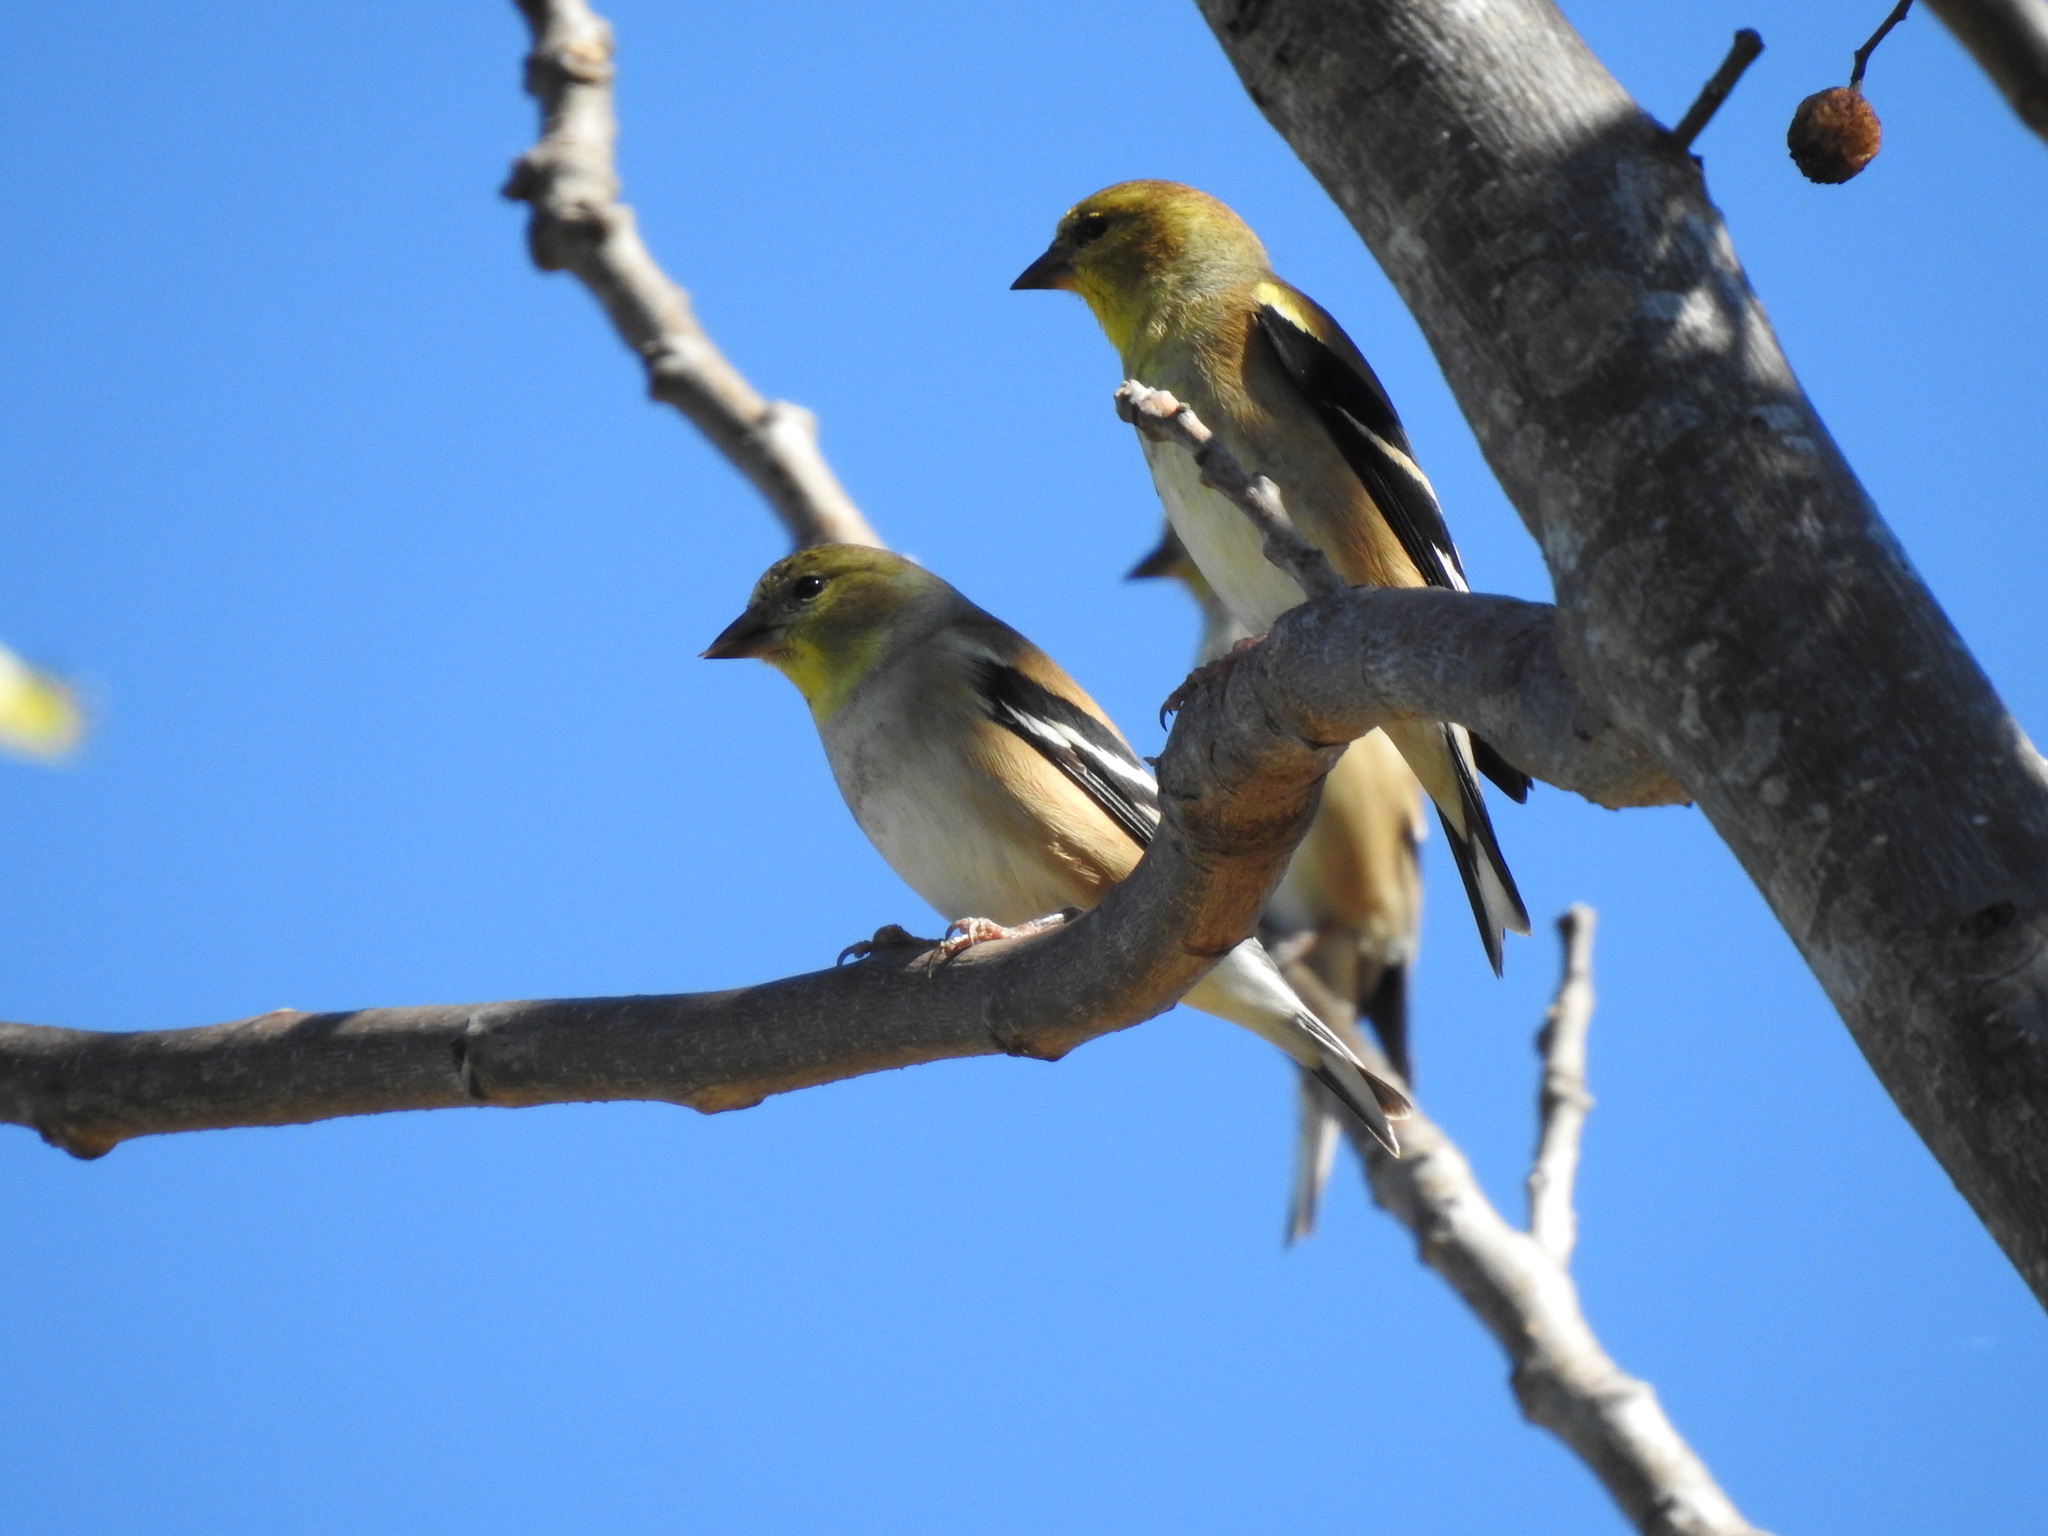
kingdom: Animalia
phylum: Chordata
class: Aves
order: Passeriformes
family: Fringillidae
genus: Spinus
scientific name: Spinus tristis
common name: American goldfinch
